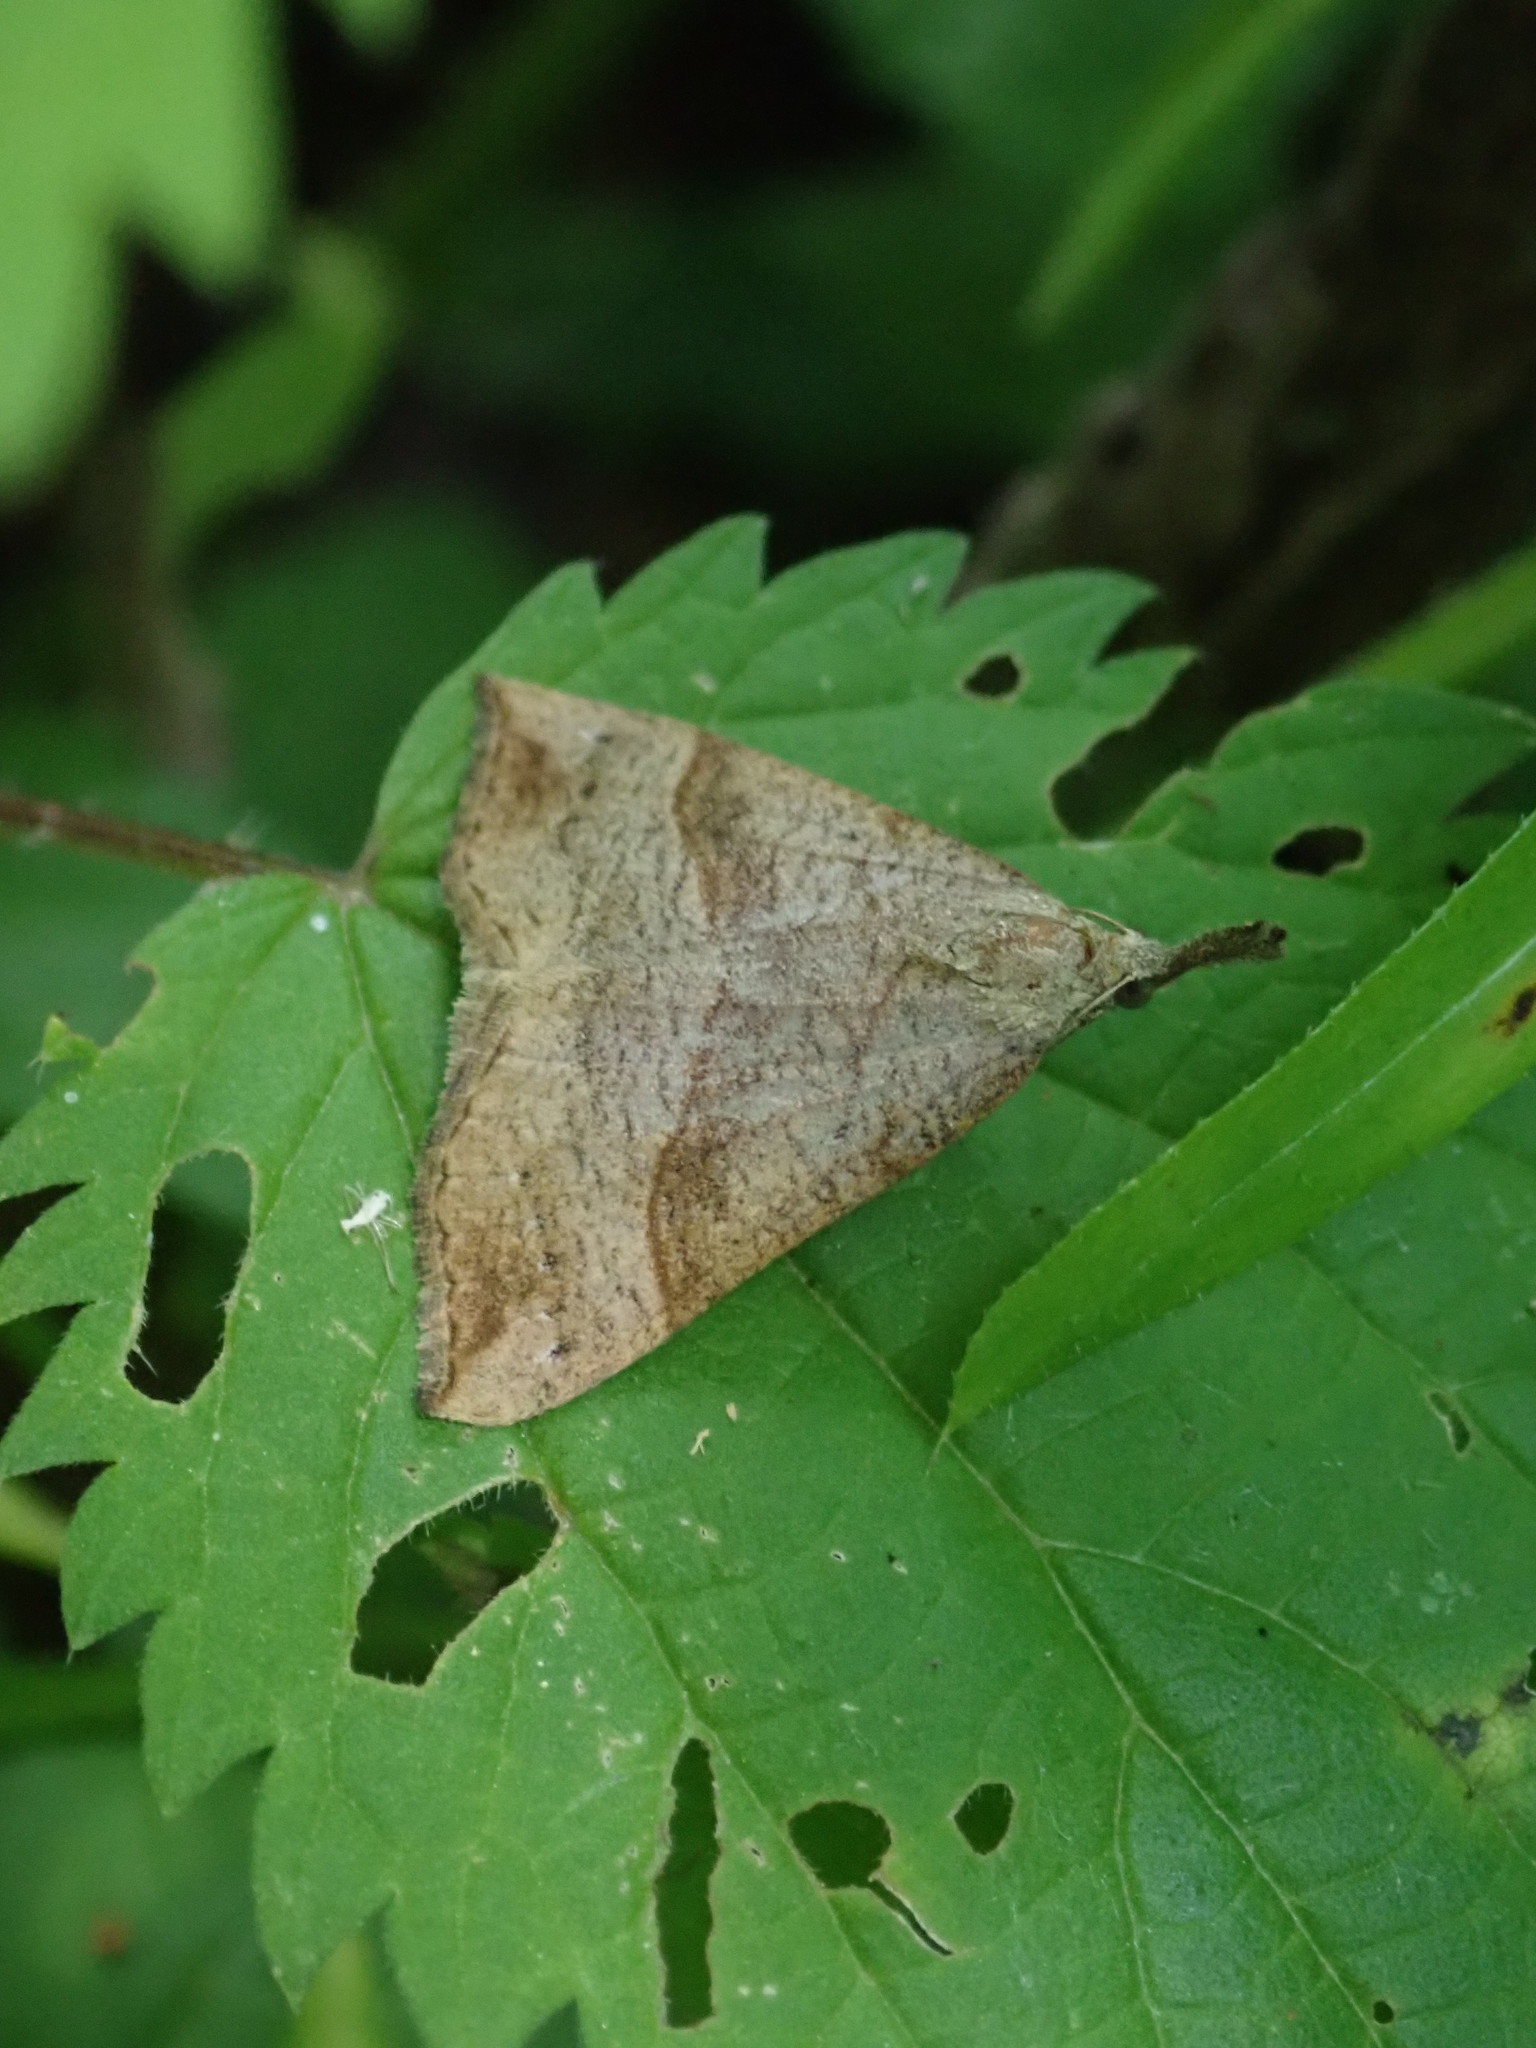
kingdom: Animalia
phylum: Arthropoda
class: Insecta
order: Lepidoptera
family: Erebidae
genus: Hypena
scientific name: Hypena proboscidalis
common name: Snout
